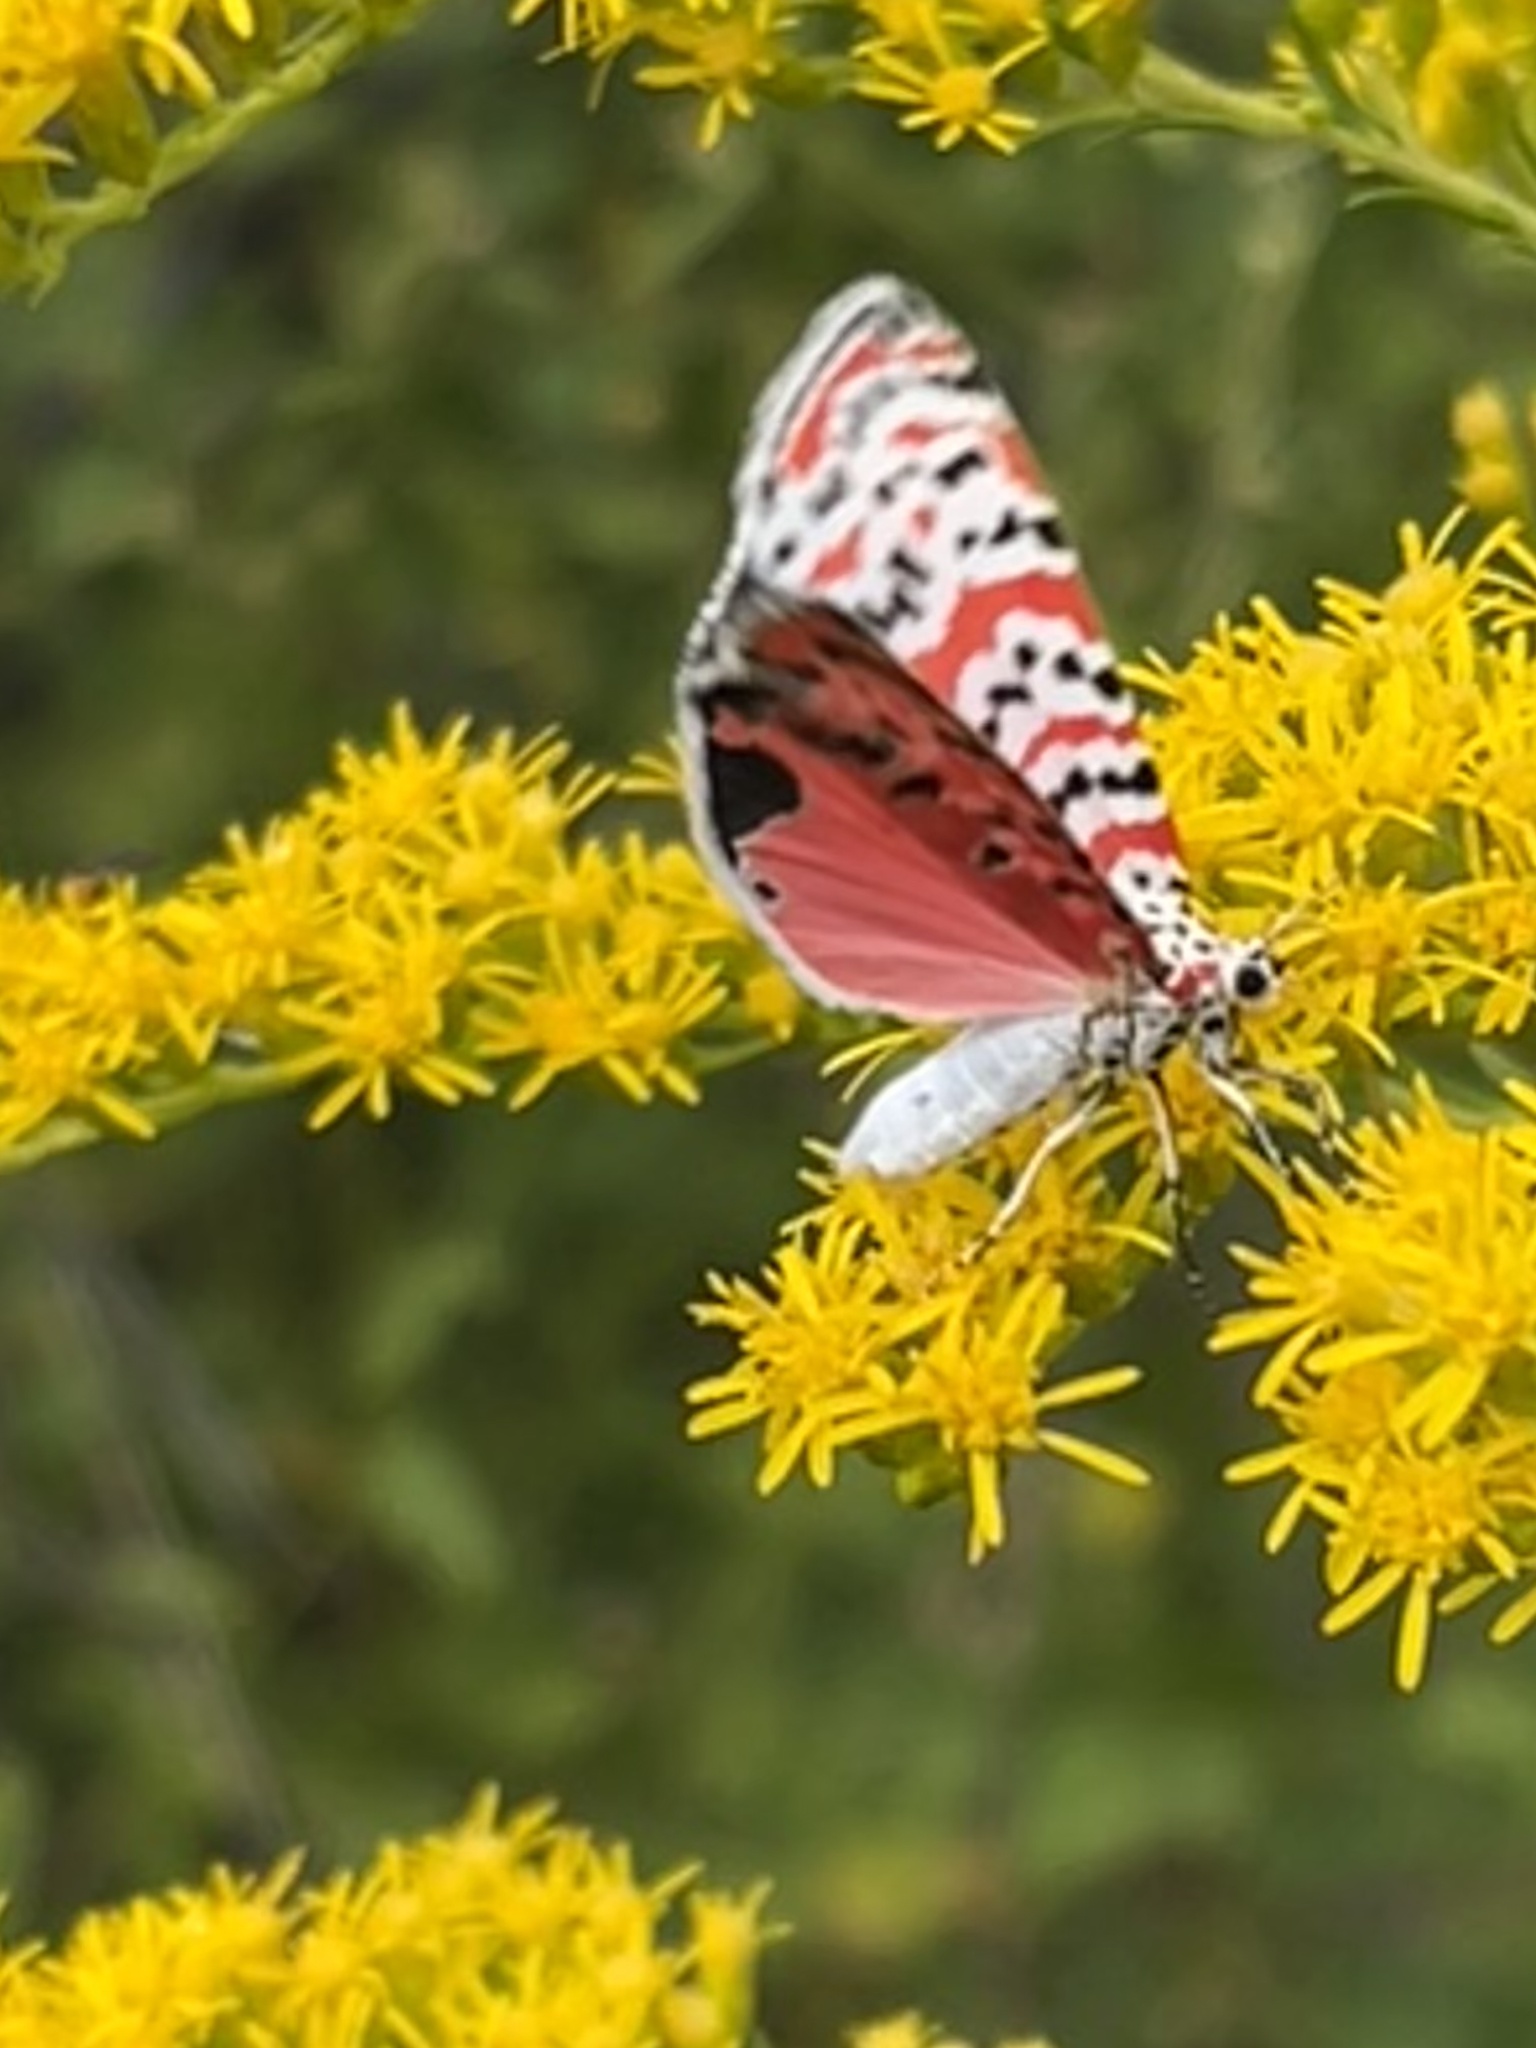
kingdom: Animalia
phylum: Arthropoda
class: Insecta
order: Lepidoptera
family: Erebidae
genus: Utetheisa
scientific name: Utetheisa ornatrix
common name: Beautiful utetheisa
